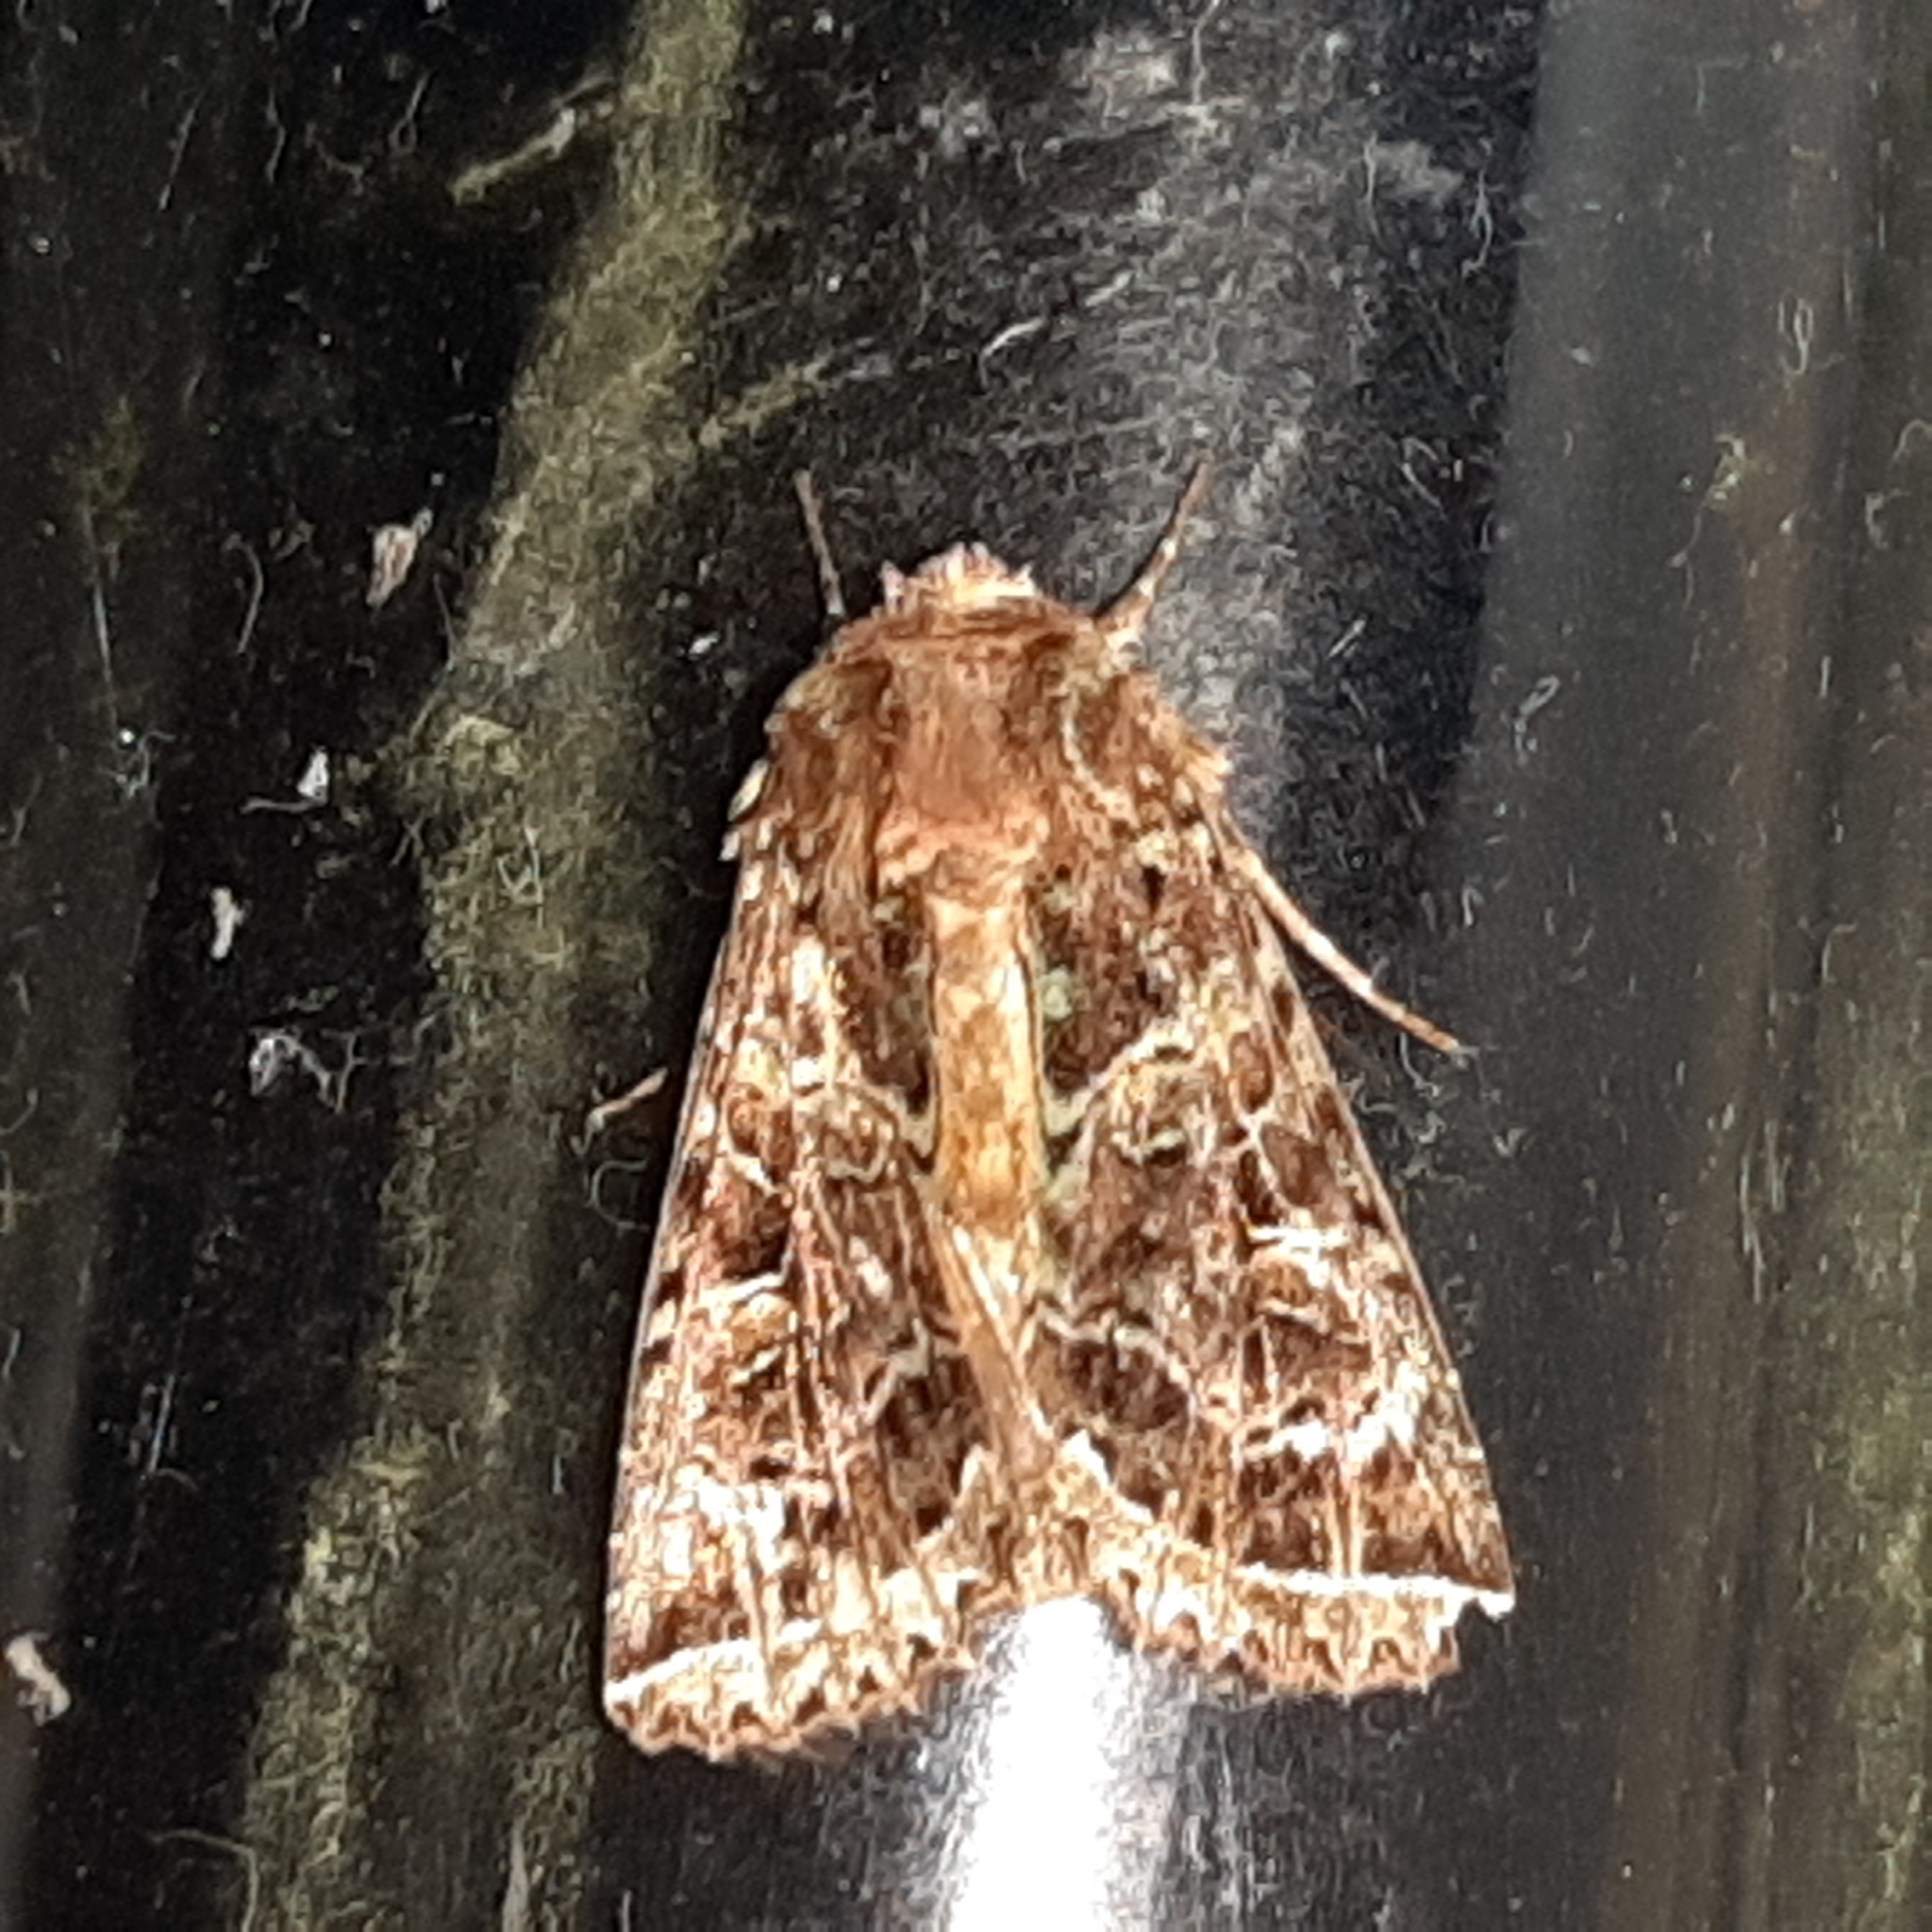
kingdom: Animalia
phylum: Arthropoda
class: Insecta
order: Lepidoptera
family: Noctuidae
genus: Heterochroma
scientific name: Heterochroma beryllus
